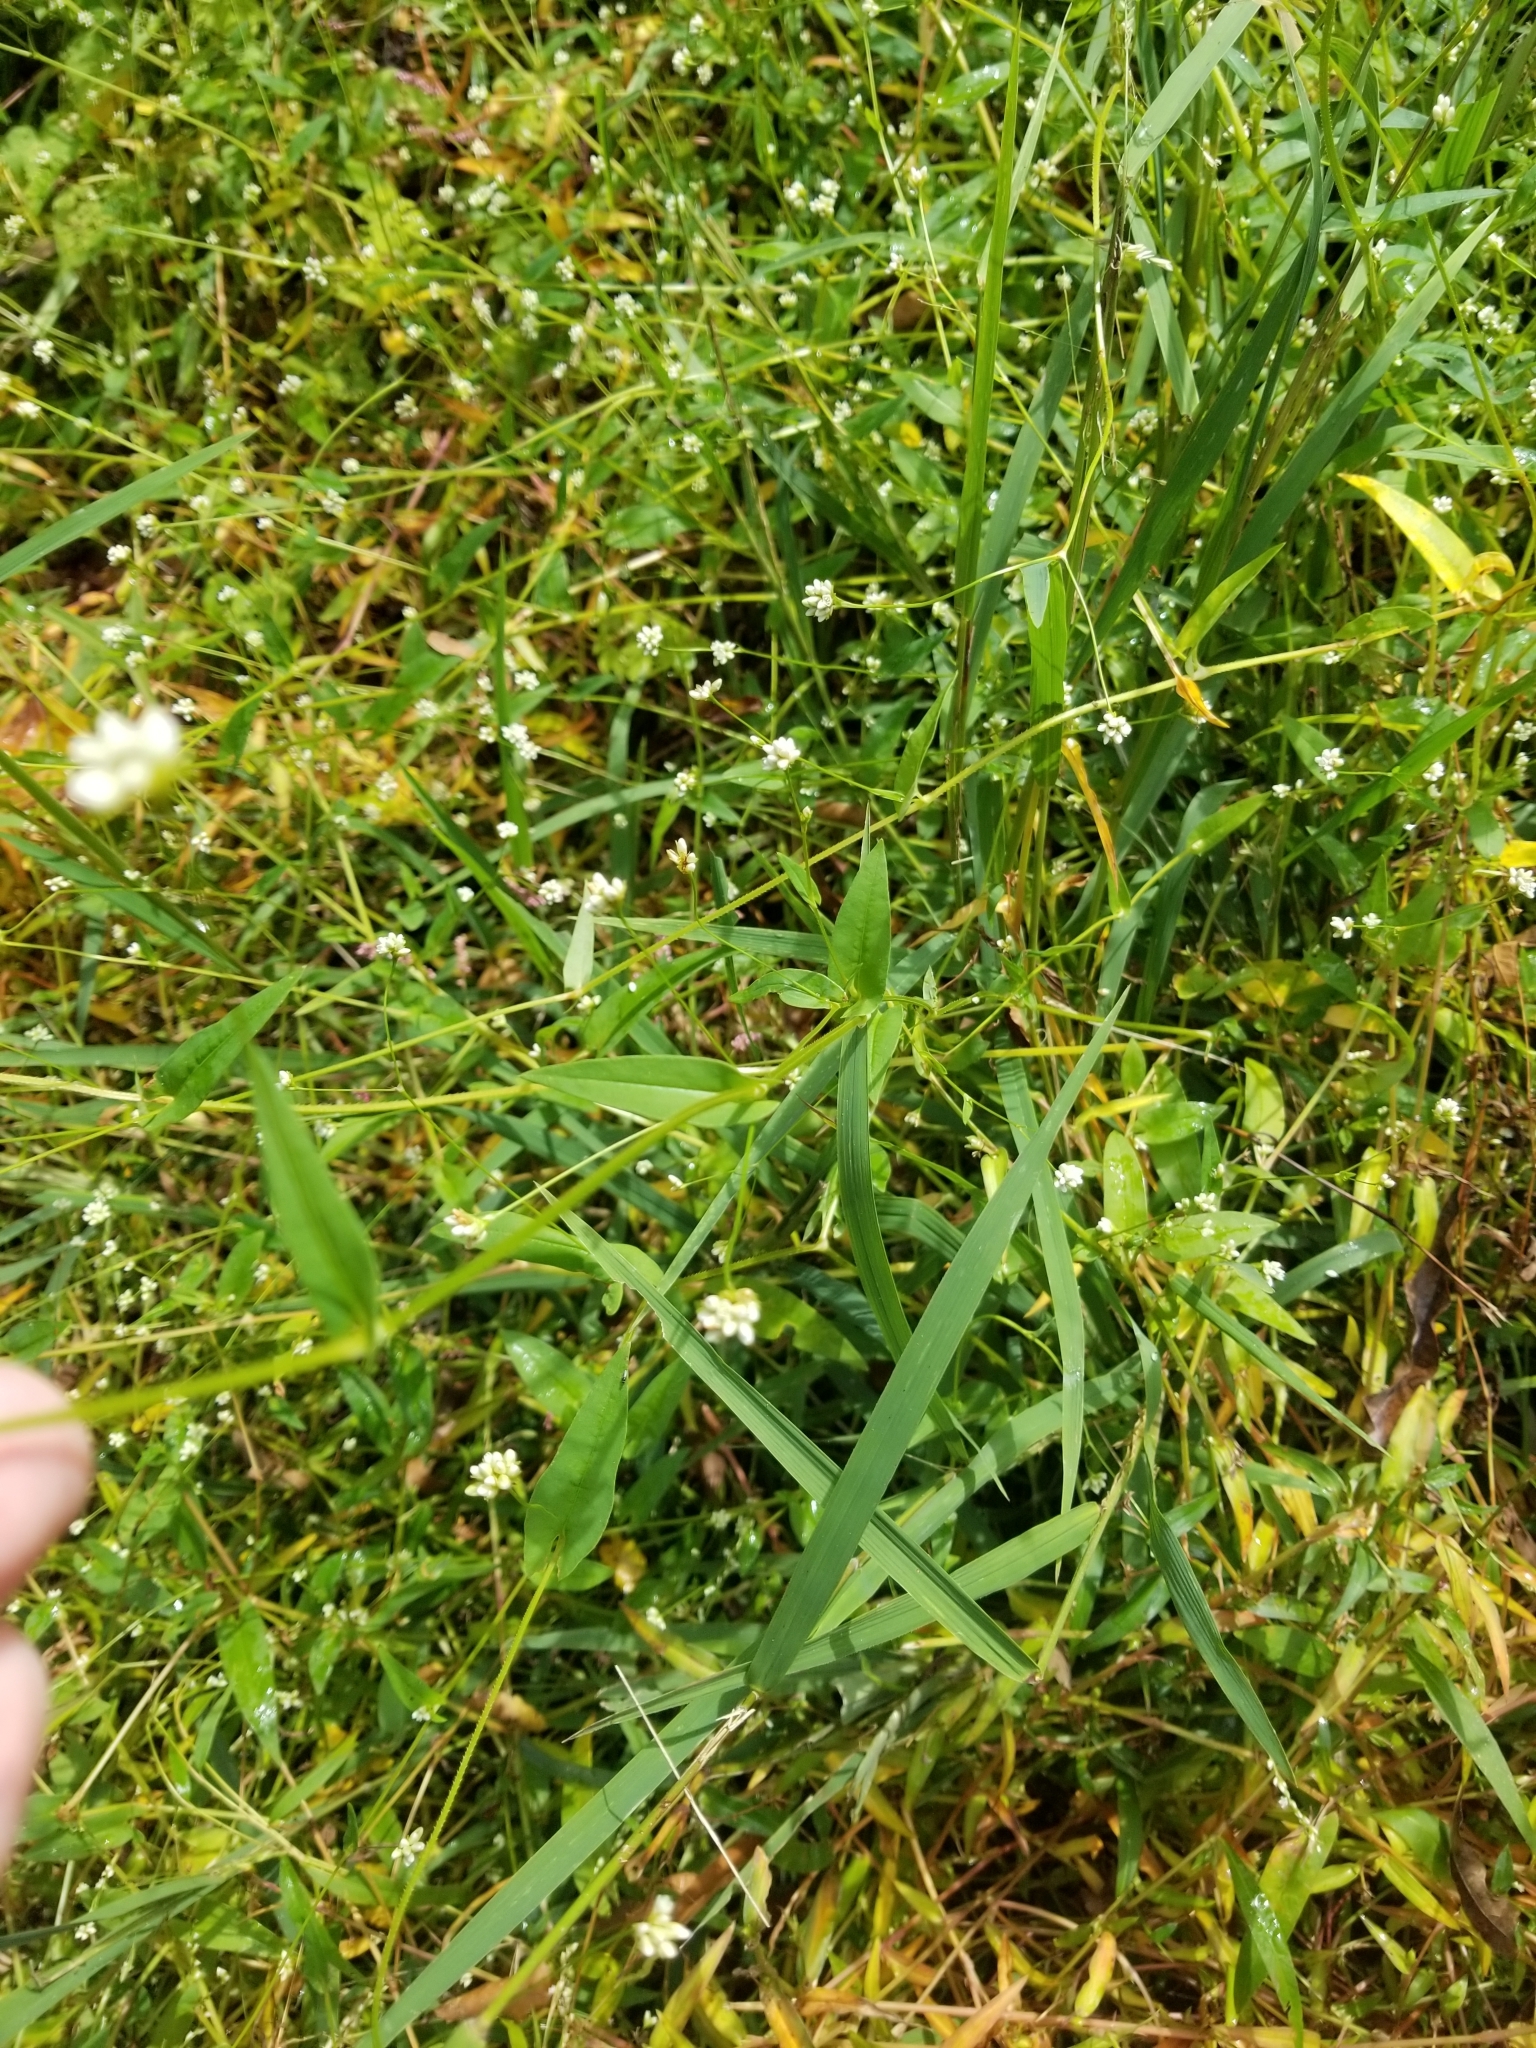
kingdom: Plantae
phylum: Tracheophyta
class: Magnoliopsida
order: Caryophyllales
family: Polygonaceae
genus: Persicaria
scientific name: Persicaria sagittata
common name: American tearthumb
